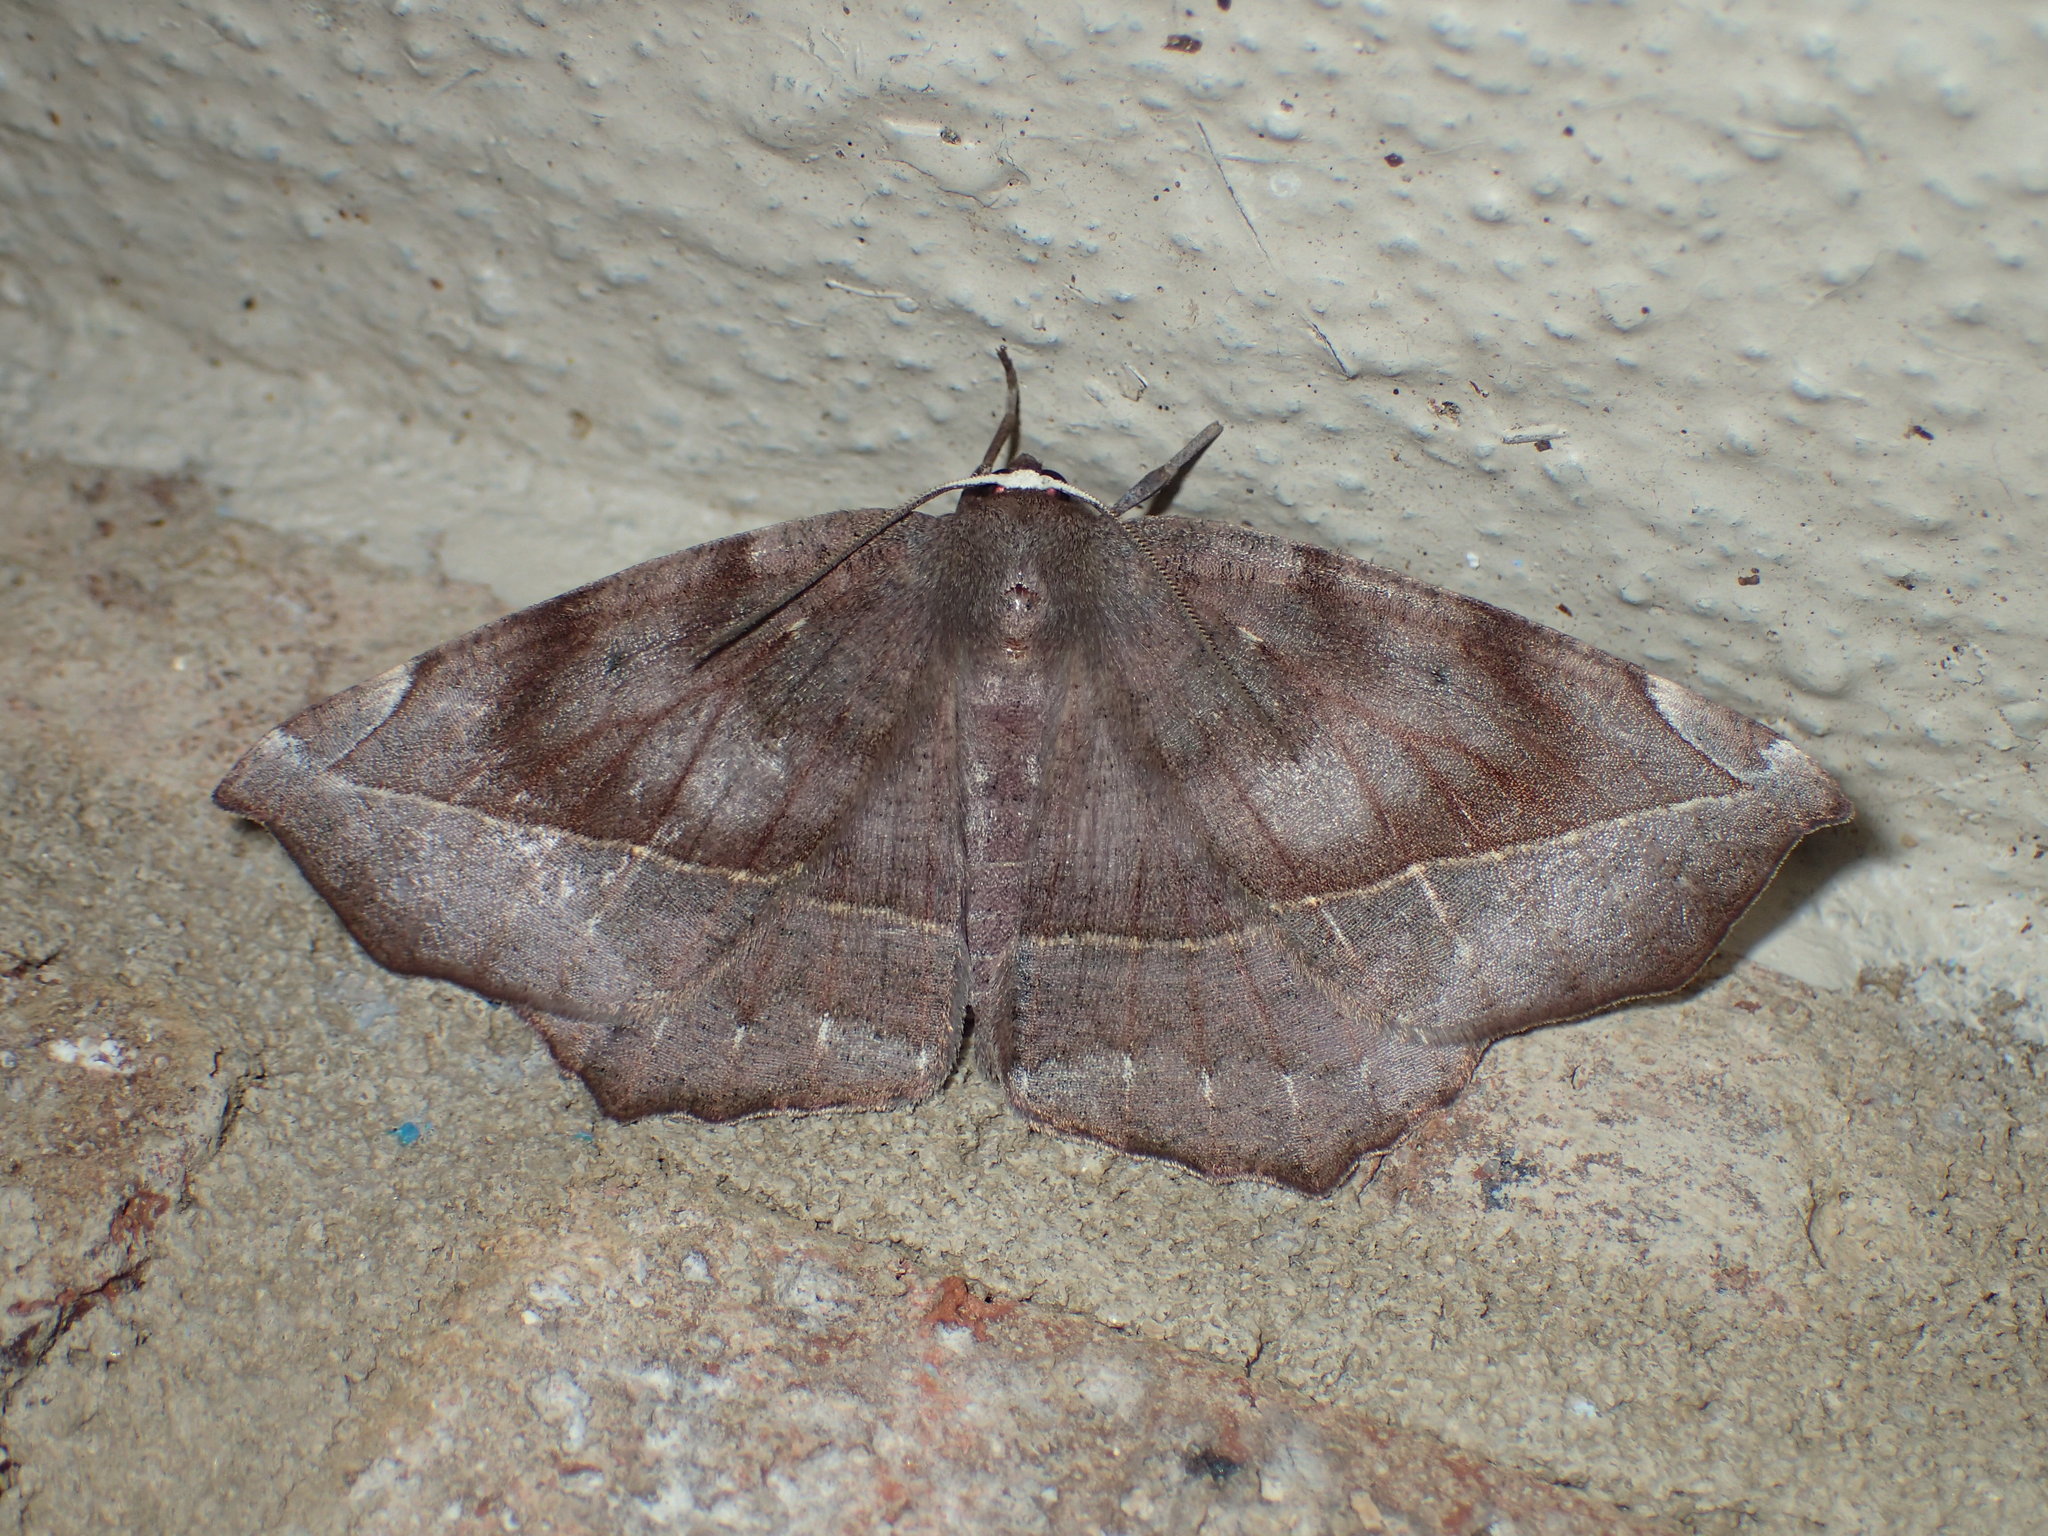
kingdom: Animalia
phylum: Arthropoda
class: Insecta
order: Lepidoptera
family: Geometridae
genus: Eutrapela
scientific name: Eutrapela clemataria
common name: Curved-toothed geometer
